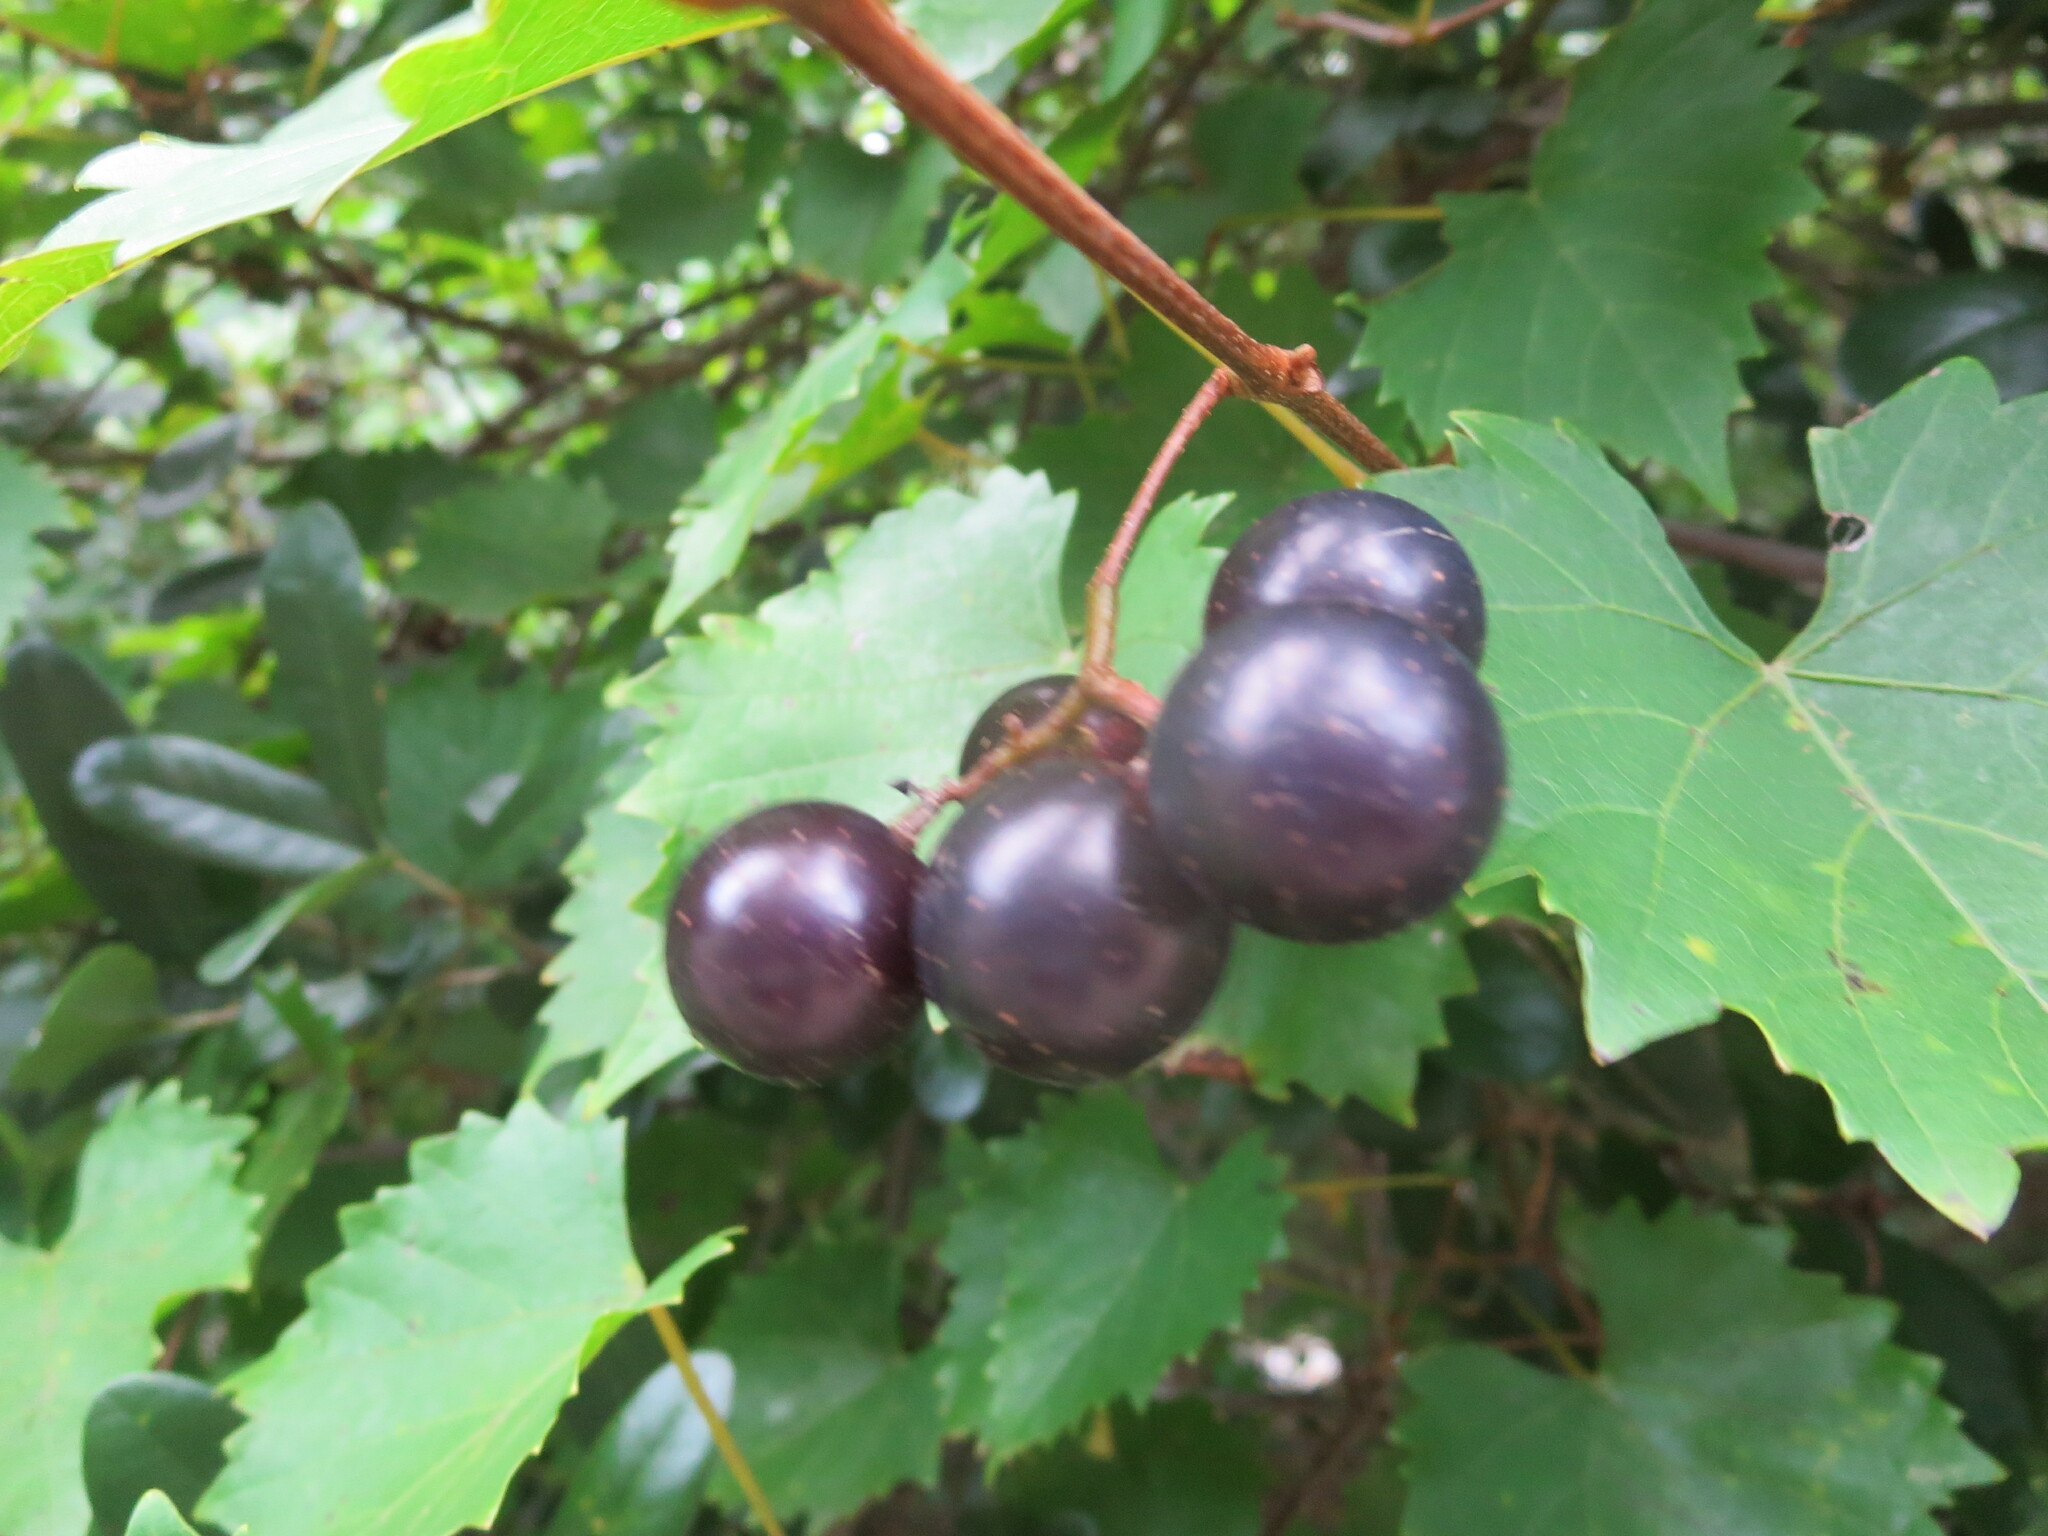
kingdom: Plantae
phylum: Tracheophyta
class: Magnoliopsida
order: Vitales
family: Vitaceae
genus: Vitis
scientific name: Vitis rotundifolia
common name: Muscadine grape
